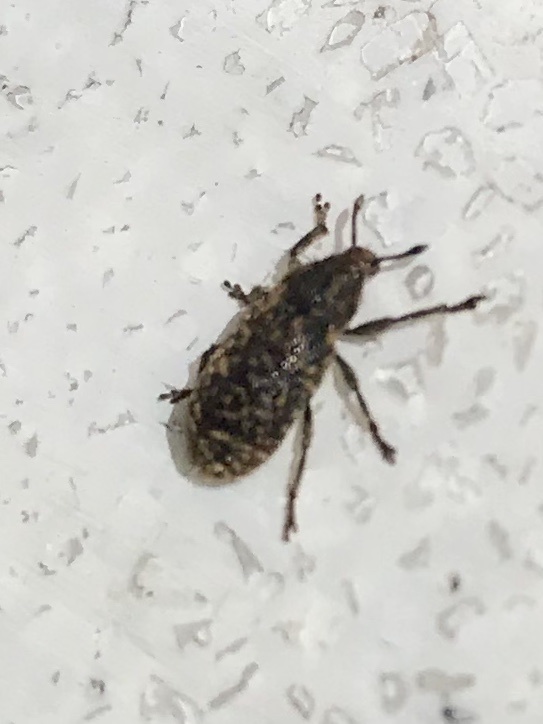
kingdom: Animalia
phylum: Arthropoda
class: Insecta
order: Coleoptera
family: Curculionidae
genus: Rhinocyllus
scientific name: Rhinocyllus conicus
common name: Weevil
